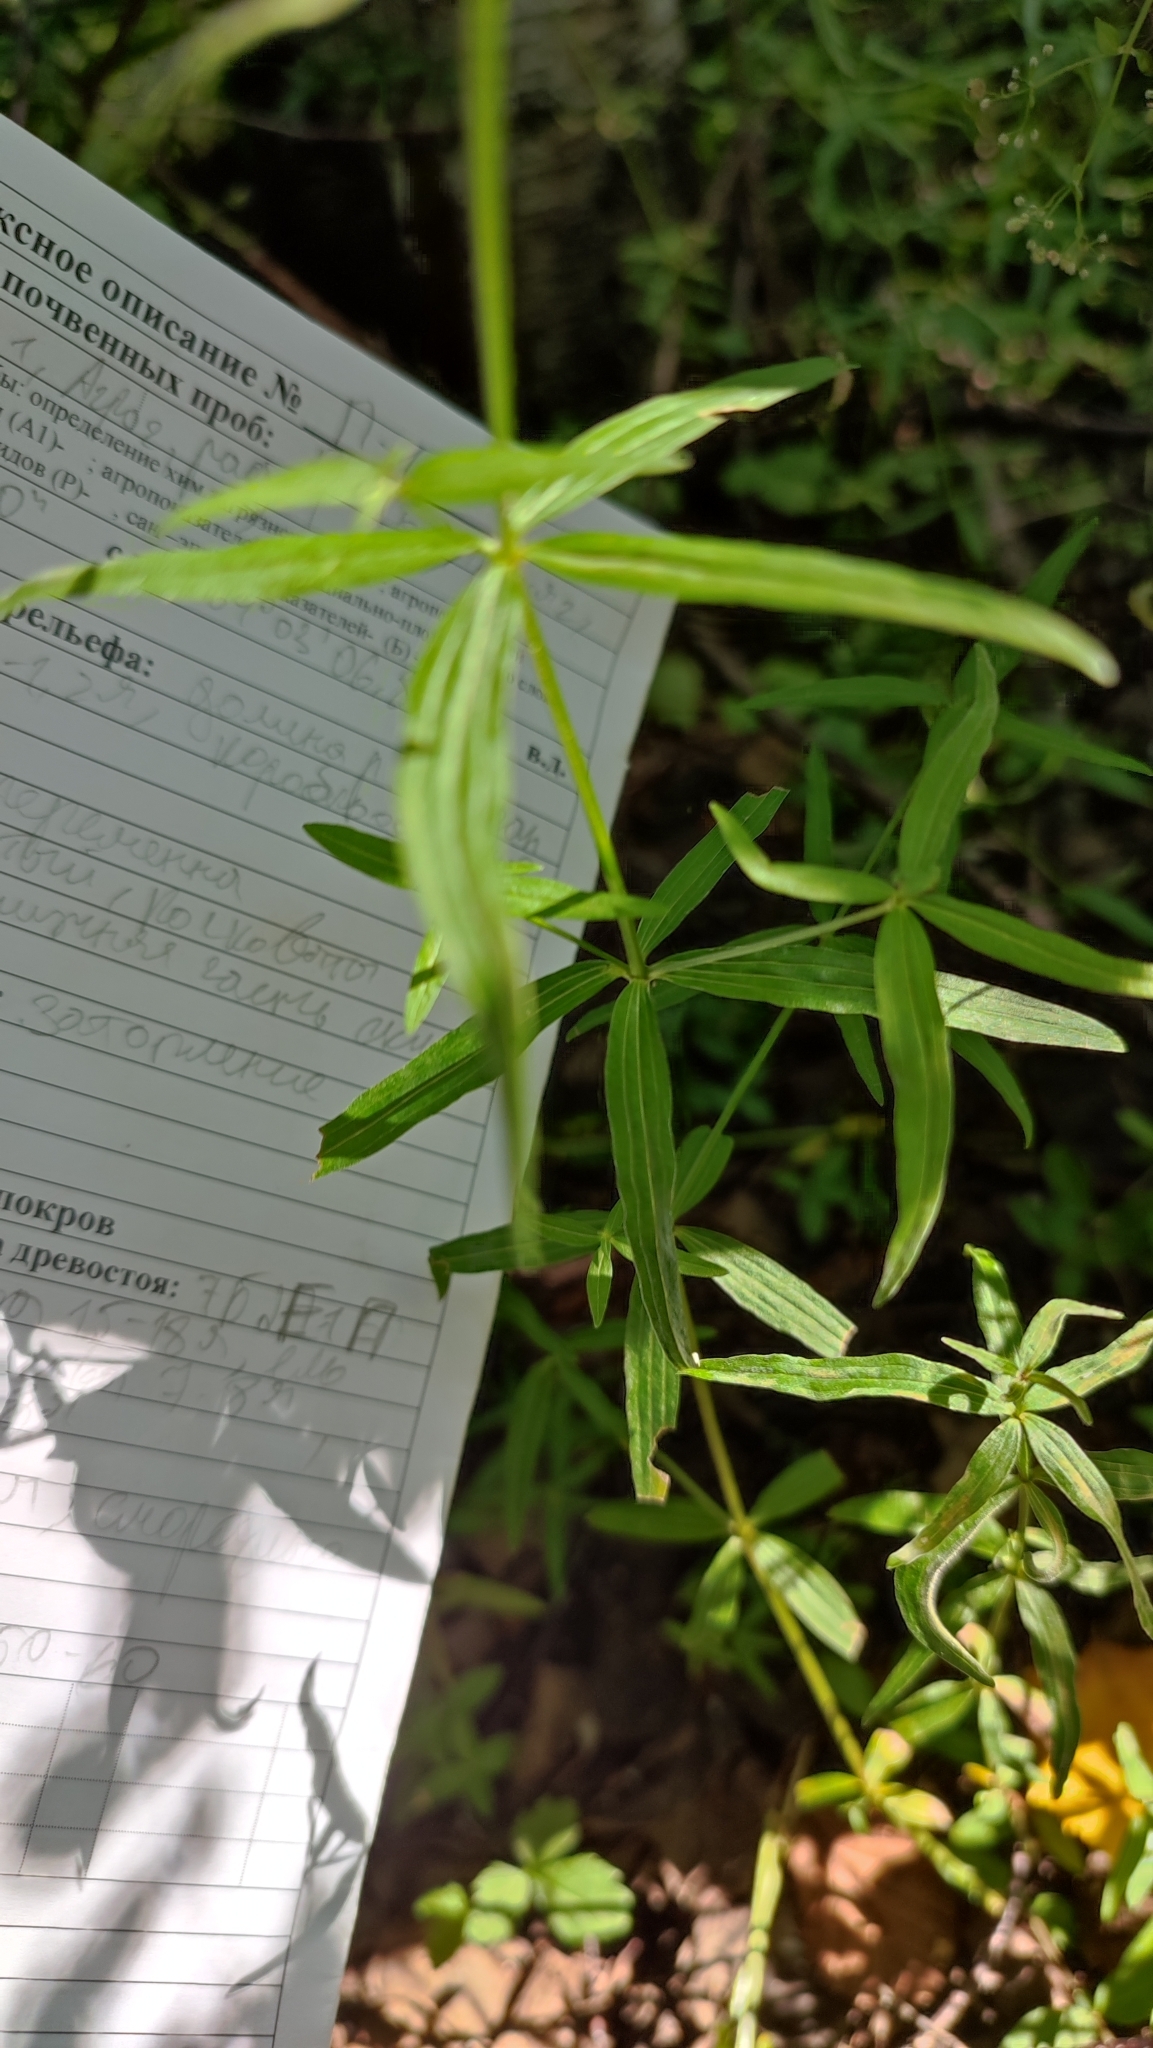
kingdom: Plantae
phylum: Tracheophyta
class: Magnoliopsida
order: Gentianales
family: Rubiaceae
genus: Galium
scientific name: Galium boreale
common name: Northern bedstraw
